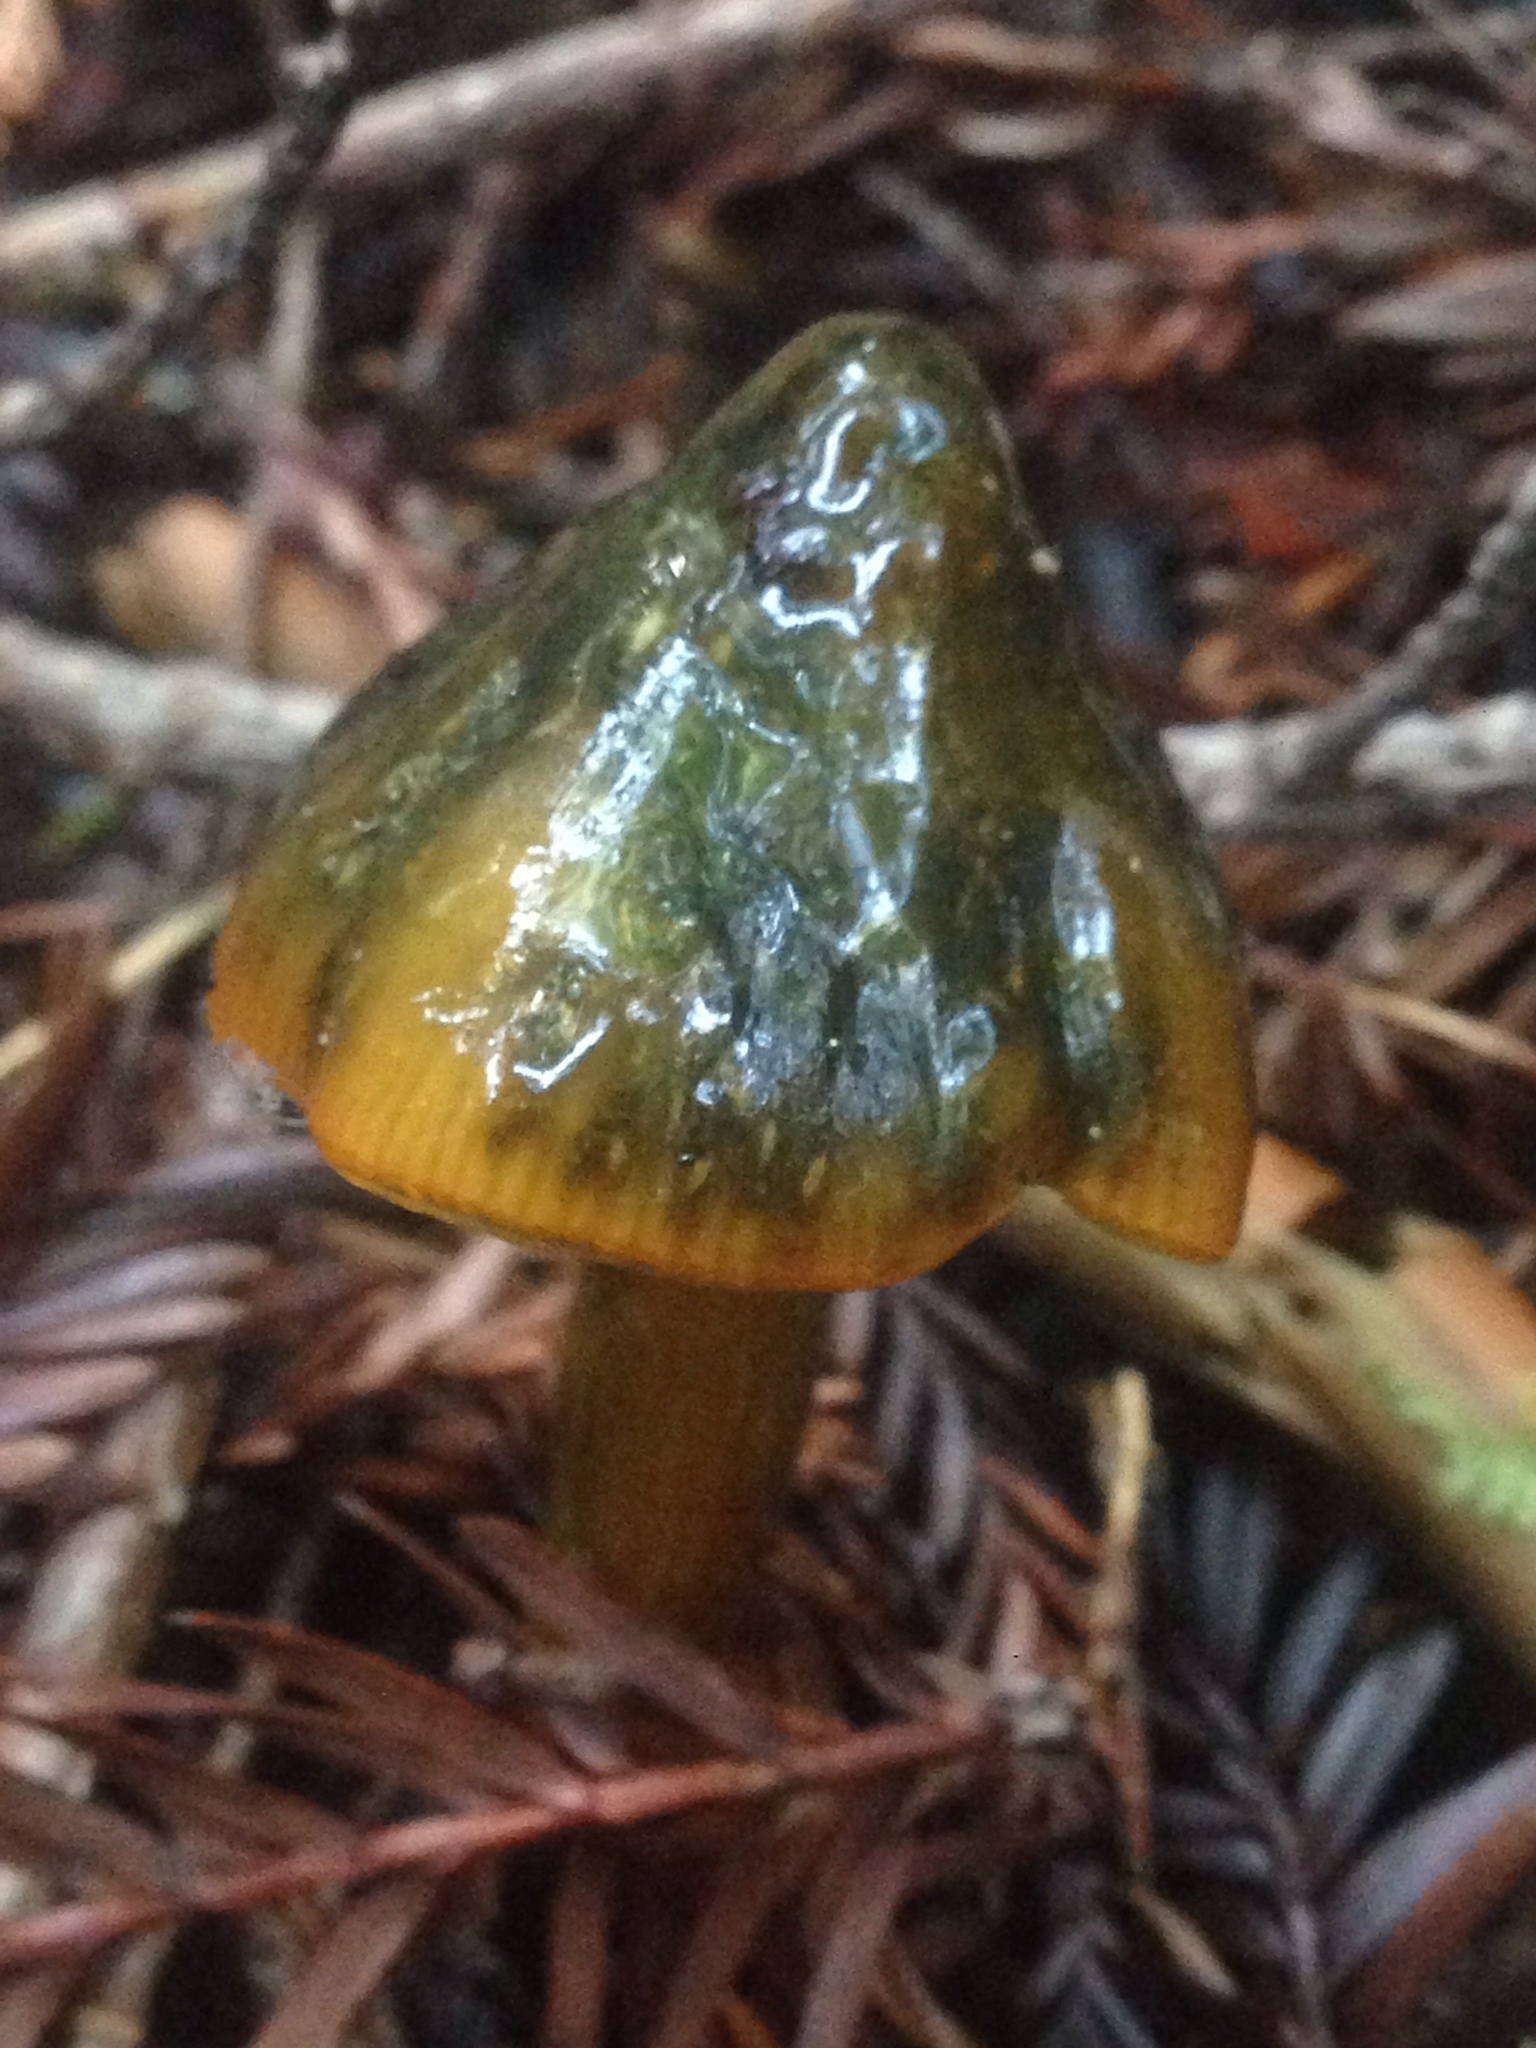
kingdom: Fungi
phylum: Basidiomycota
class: Agaricomycetes
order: Agaricales
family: Hygrophoraceae
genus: Hygrocybe
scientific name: Hygrocybe singeri
